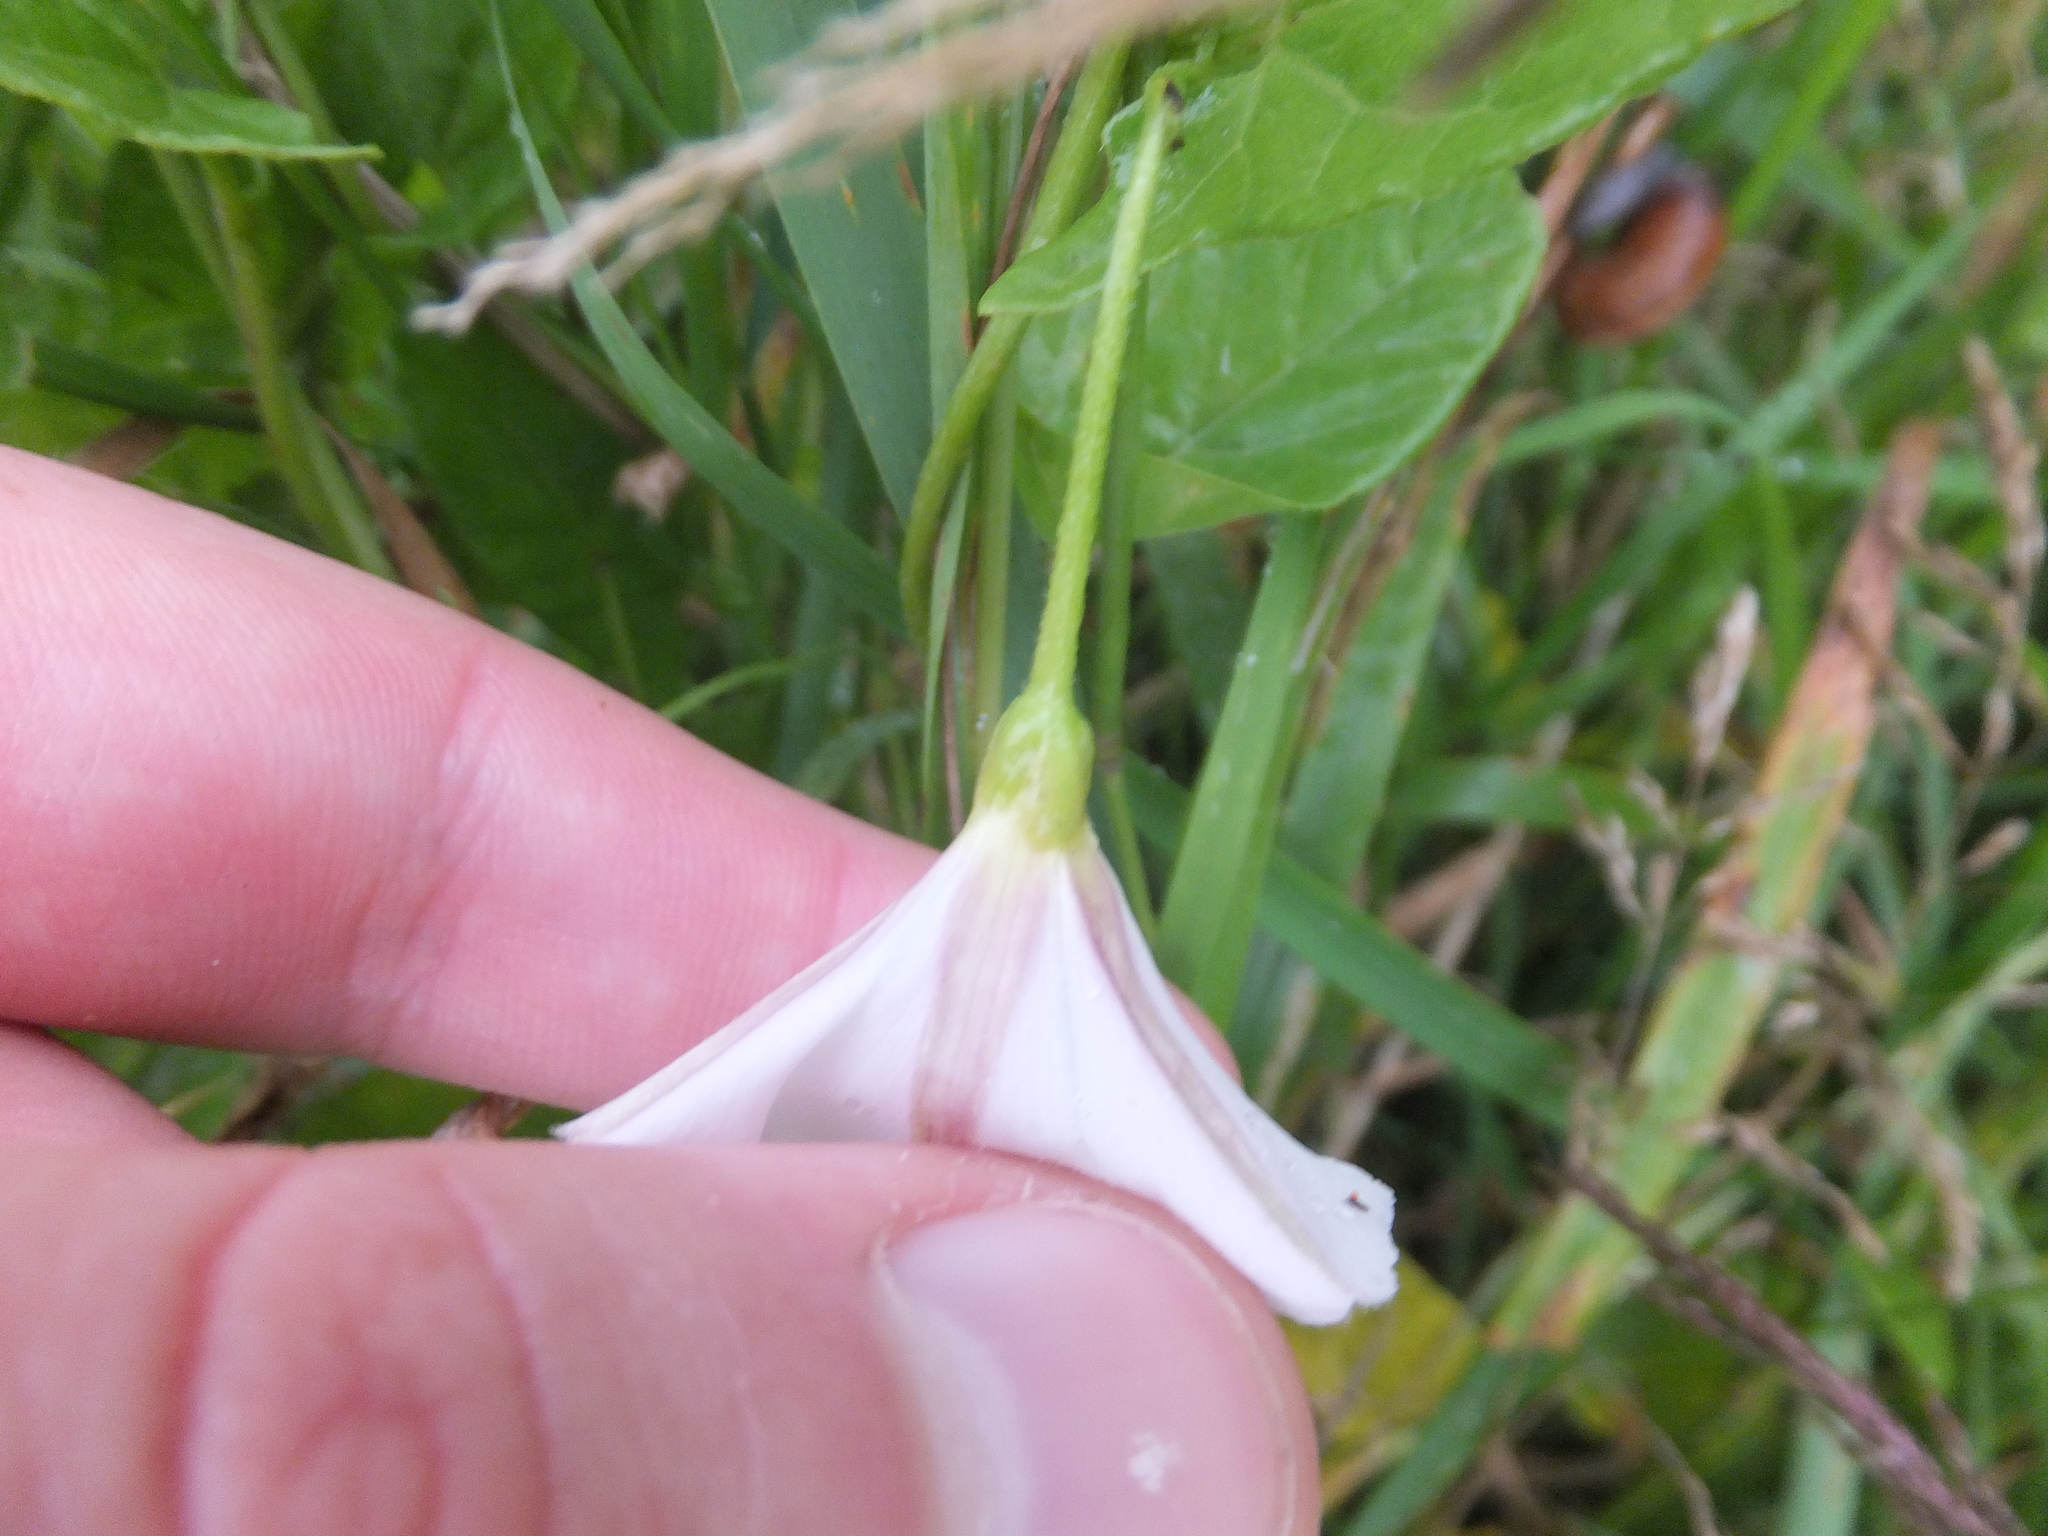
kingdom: Plantae
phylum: Tracheophyta
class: Magnoliopsida
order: Solanales
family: Convolvulaceae
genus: Convolvulus
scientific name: Convolvulus arvensis
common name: Field bindweed
